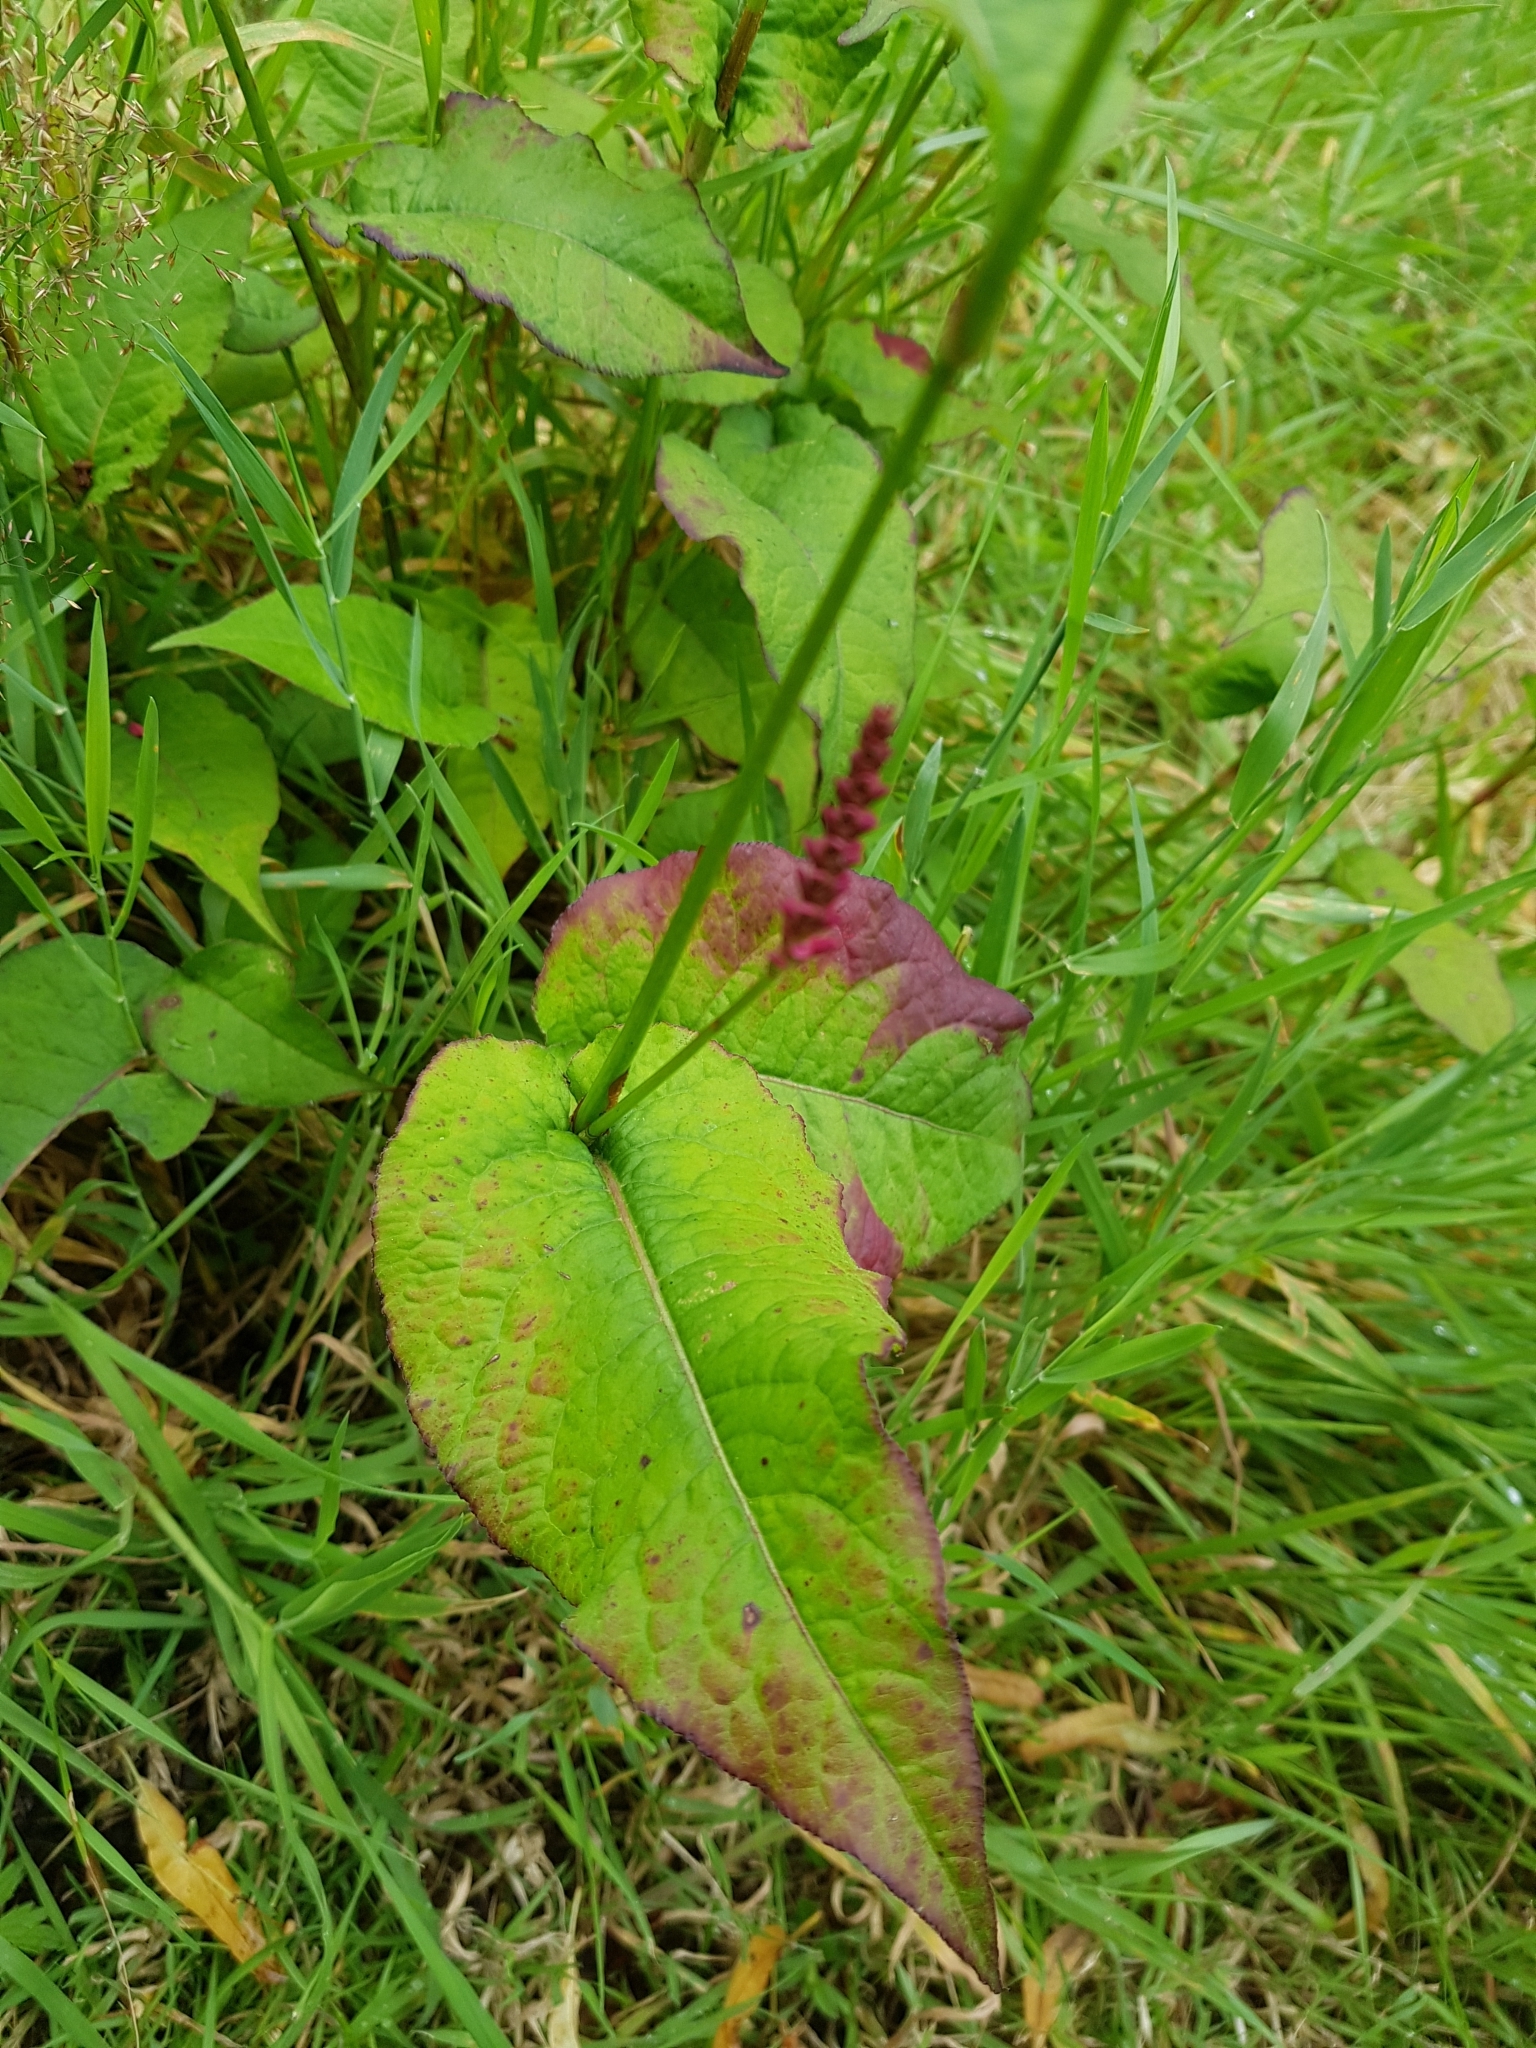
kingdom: Plantae
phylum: Tracheophyta
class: Magnoliopsida
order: Caryophyllales
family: Polygonaceae
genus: Bistorta
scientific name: Bistorta amplexicaulis
